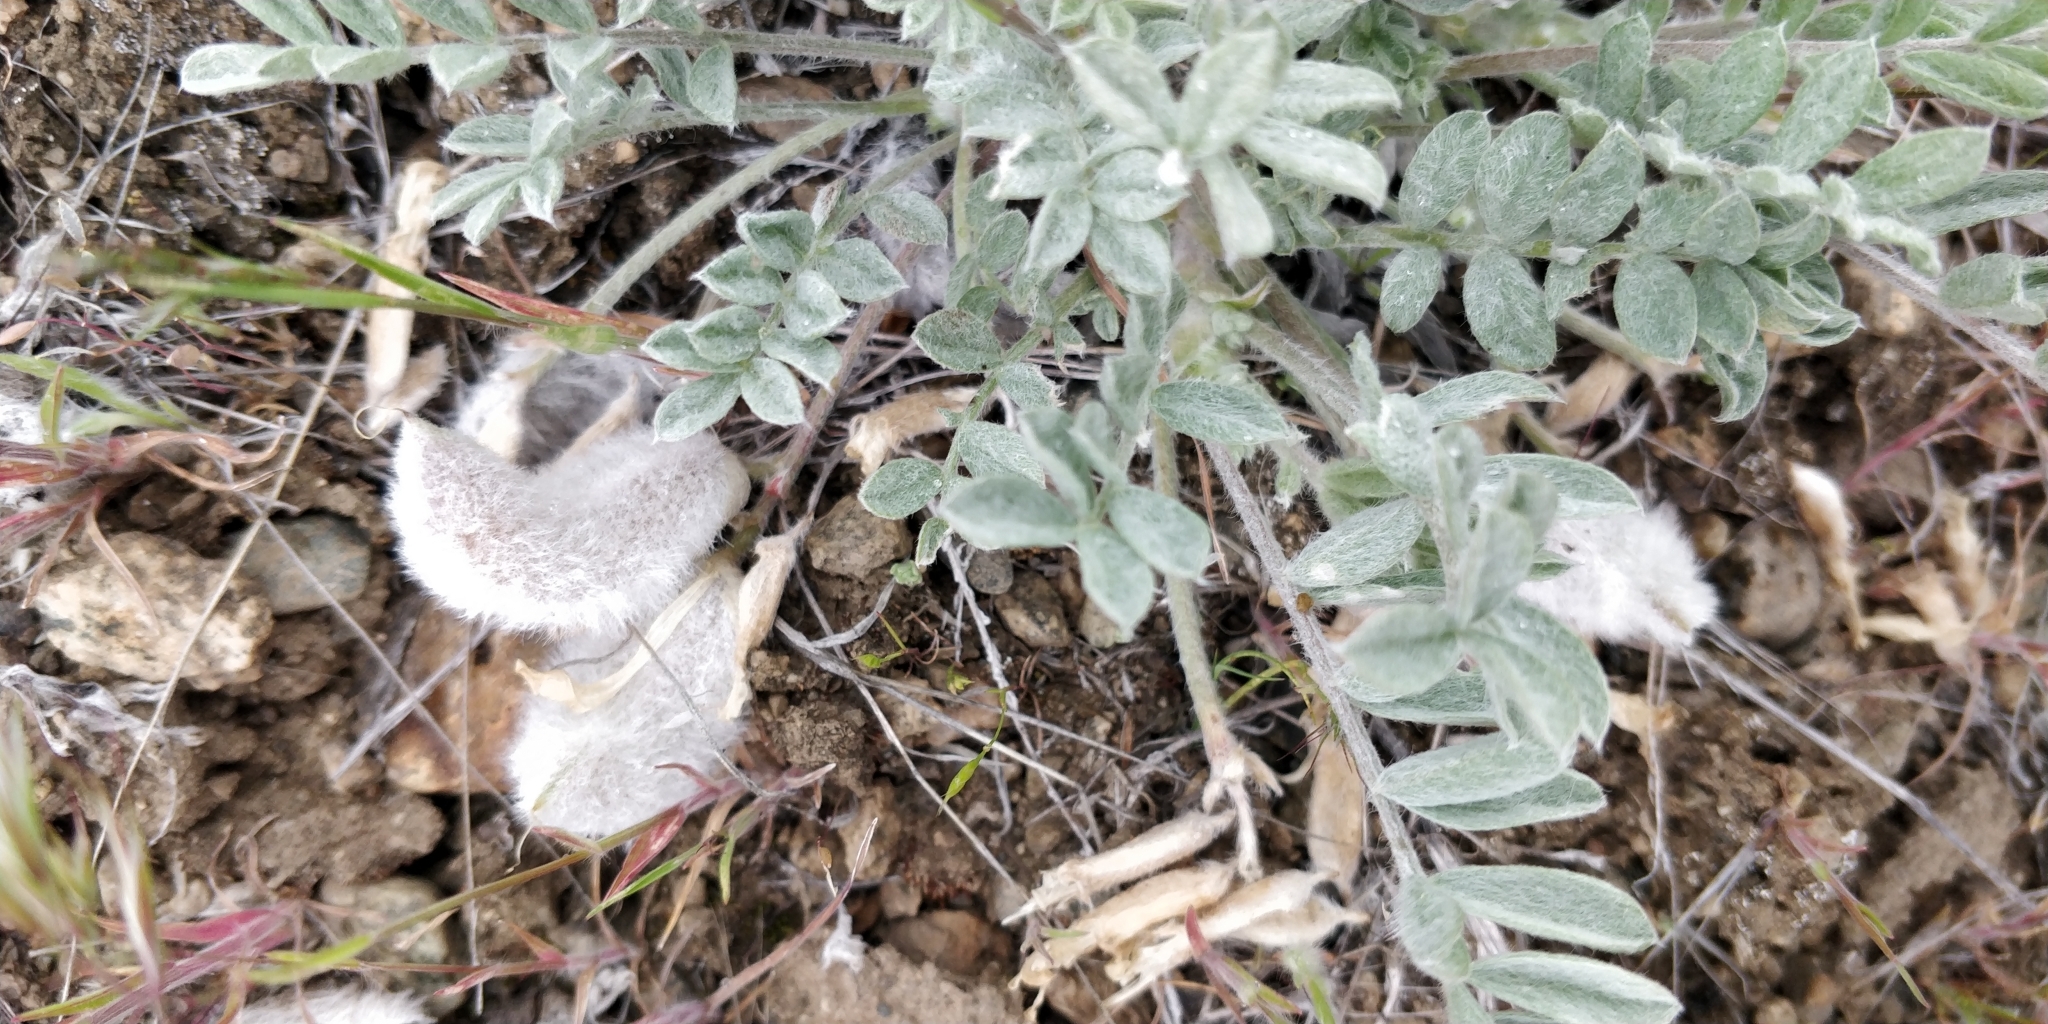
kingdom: Plantae
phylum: Tracheophyta
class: Magnoliopsida
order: Fabales
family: Fabaceae
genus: Astragalus
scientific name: Astragalus purshii
